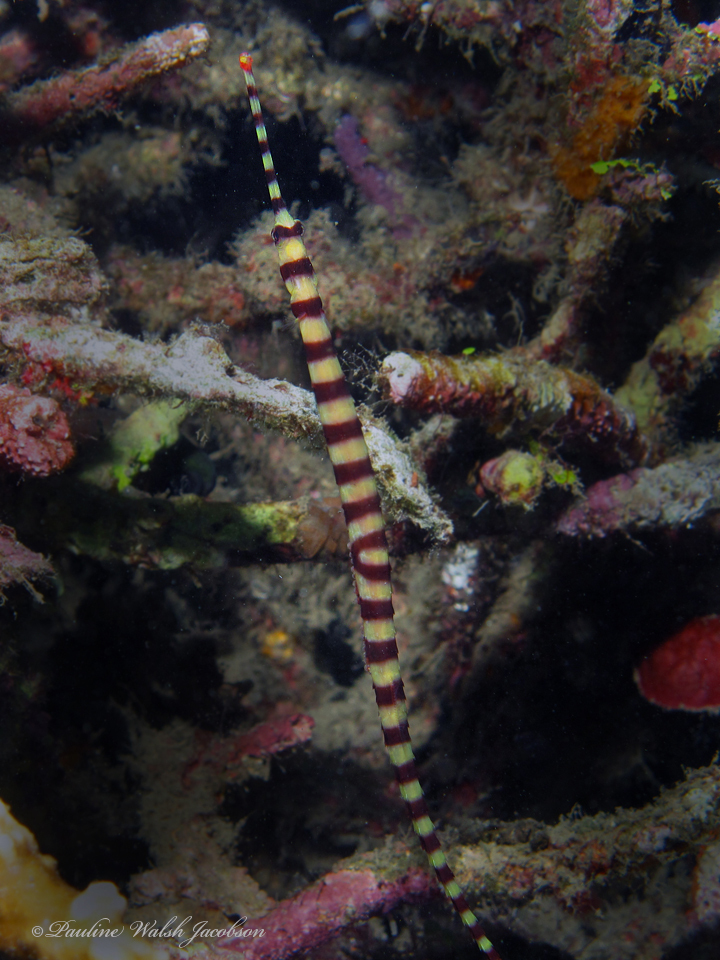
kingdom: Animalia
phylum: Chordata
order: Syngnathiformes
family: Syngnathidae
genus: Dunckerocampus
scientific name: Dunckerocampus dactyliophorus
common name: Banded pipefish
